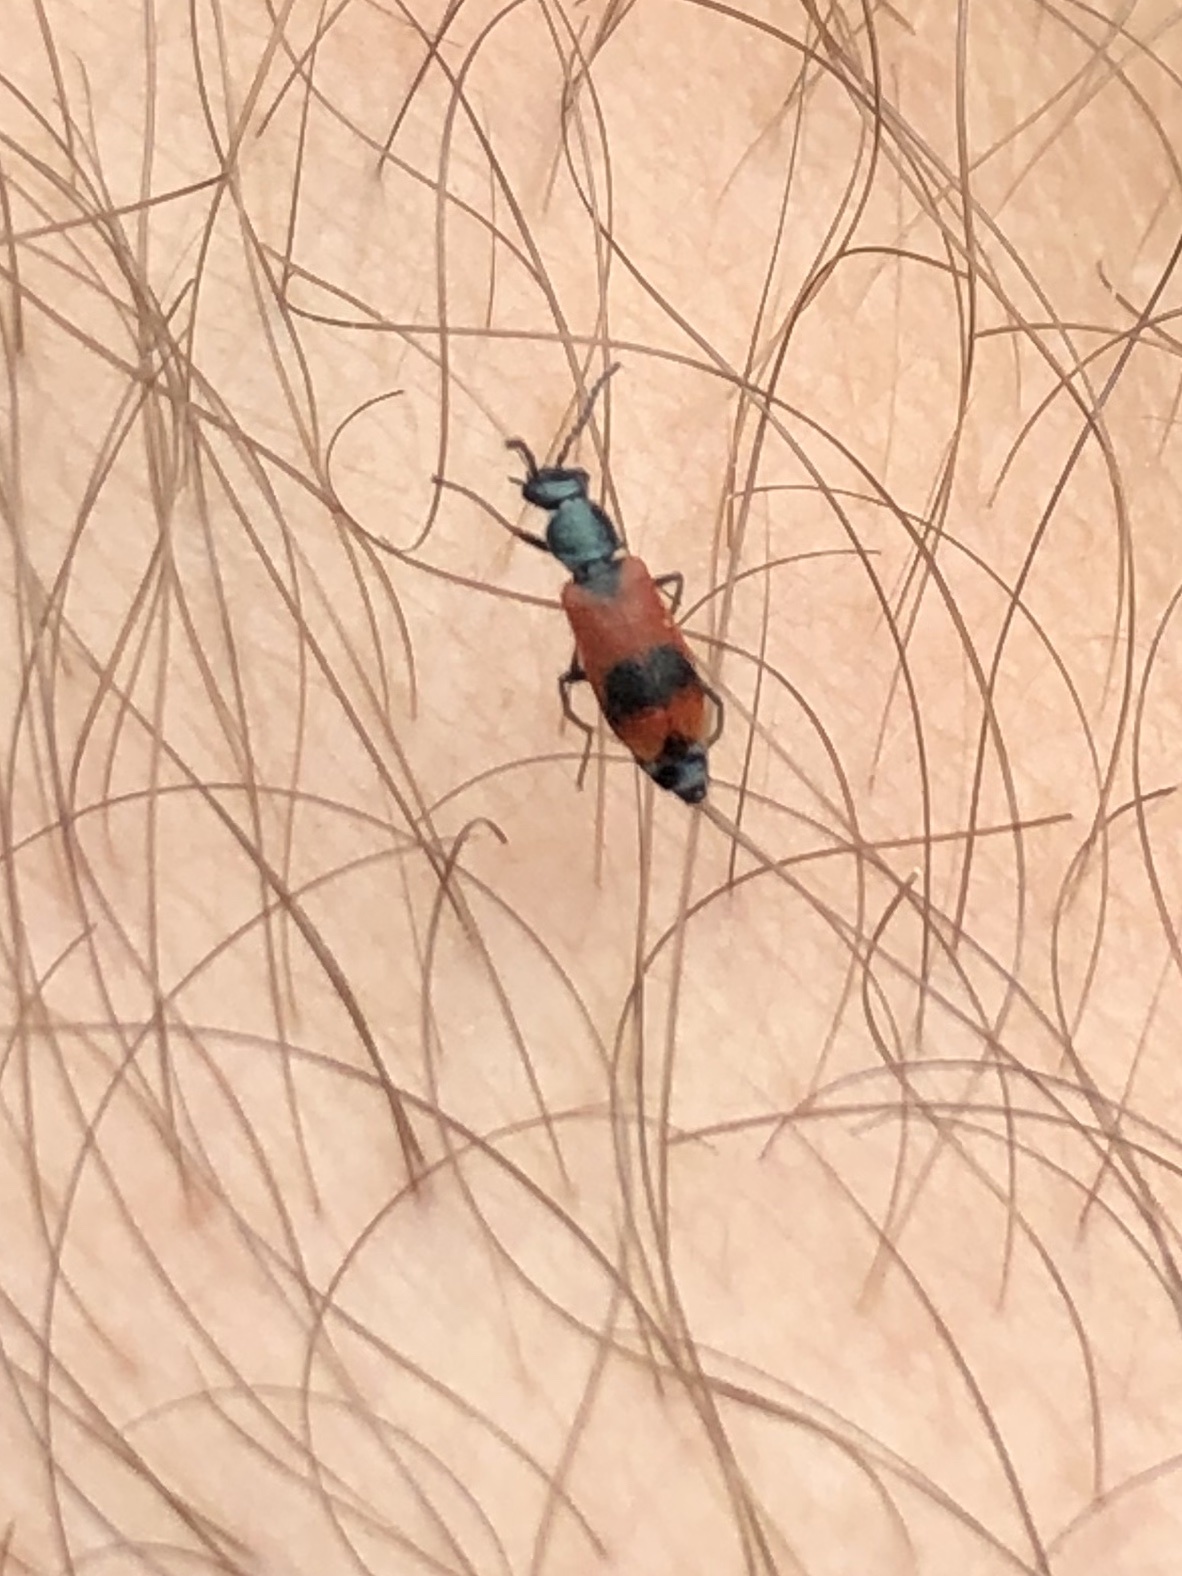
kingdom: Animalia
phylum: Arthropoda
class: Insecta
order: Coleoptera
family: Melyridae
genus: Anthocomus
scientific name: Anthocomus equestris
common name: Black-banded soft-winged flower beetle
